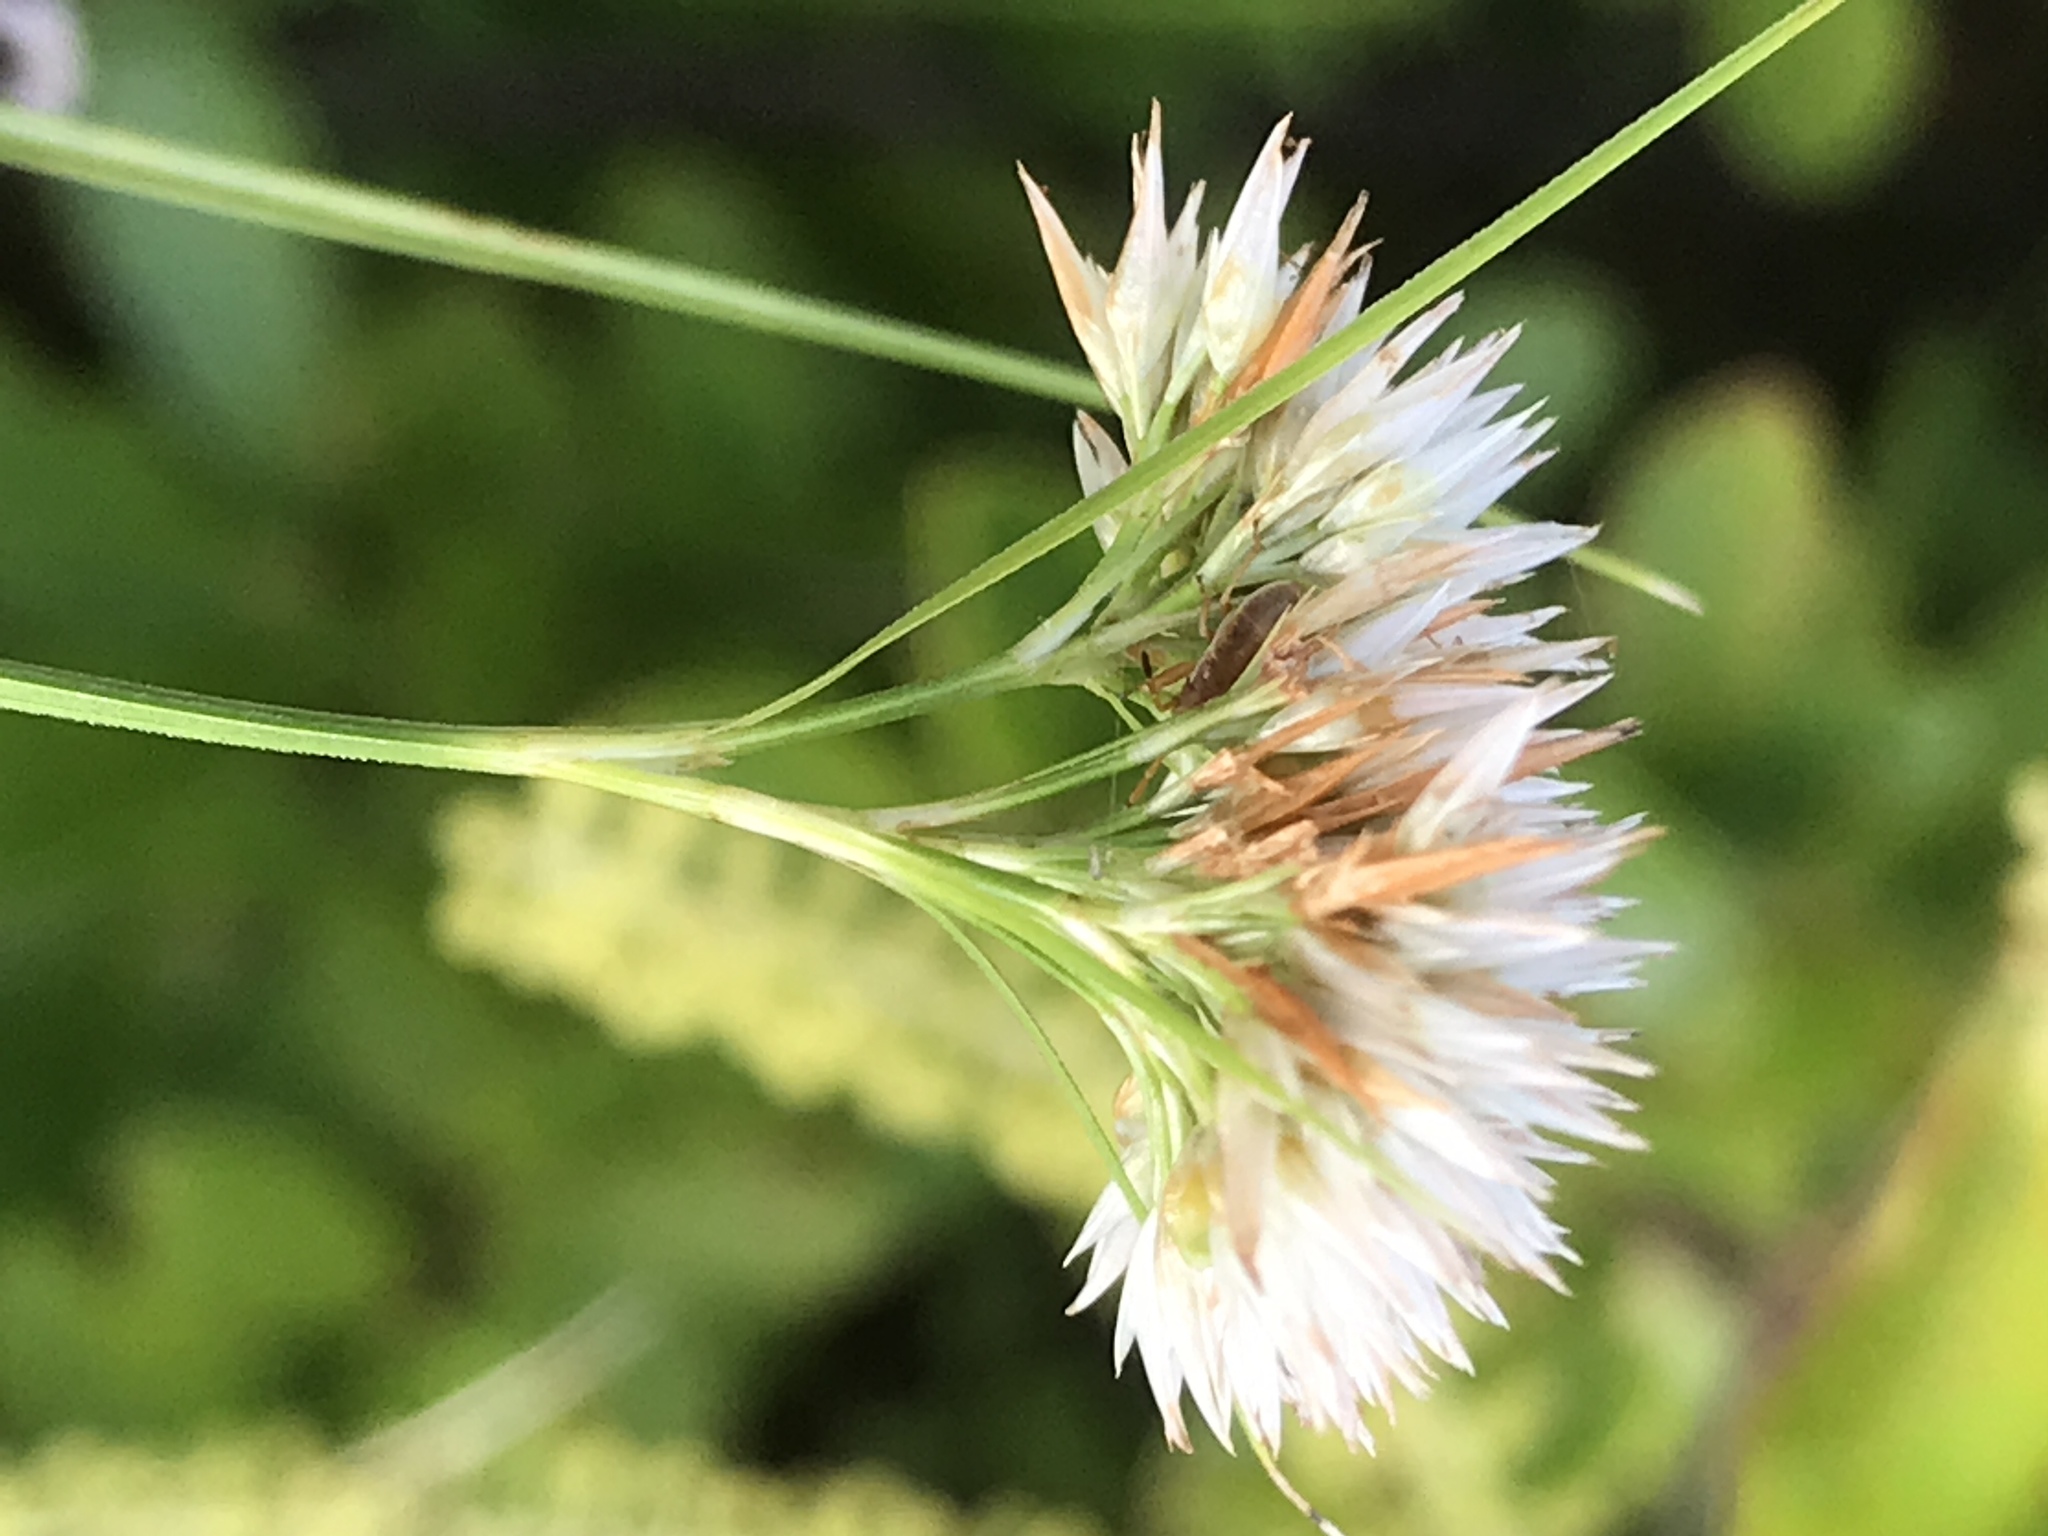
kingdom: Plantae
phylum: Tracheophyta
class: Liliopsida
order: Poales
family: Cyperaceae
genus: Rhynchospora
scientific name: Rhynchospora pallida
